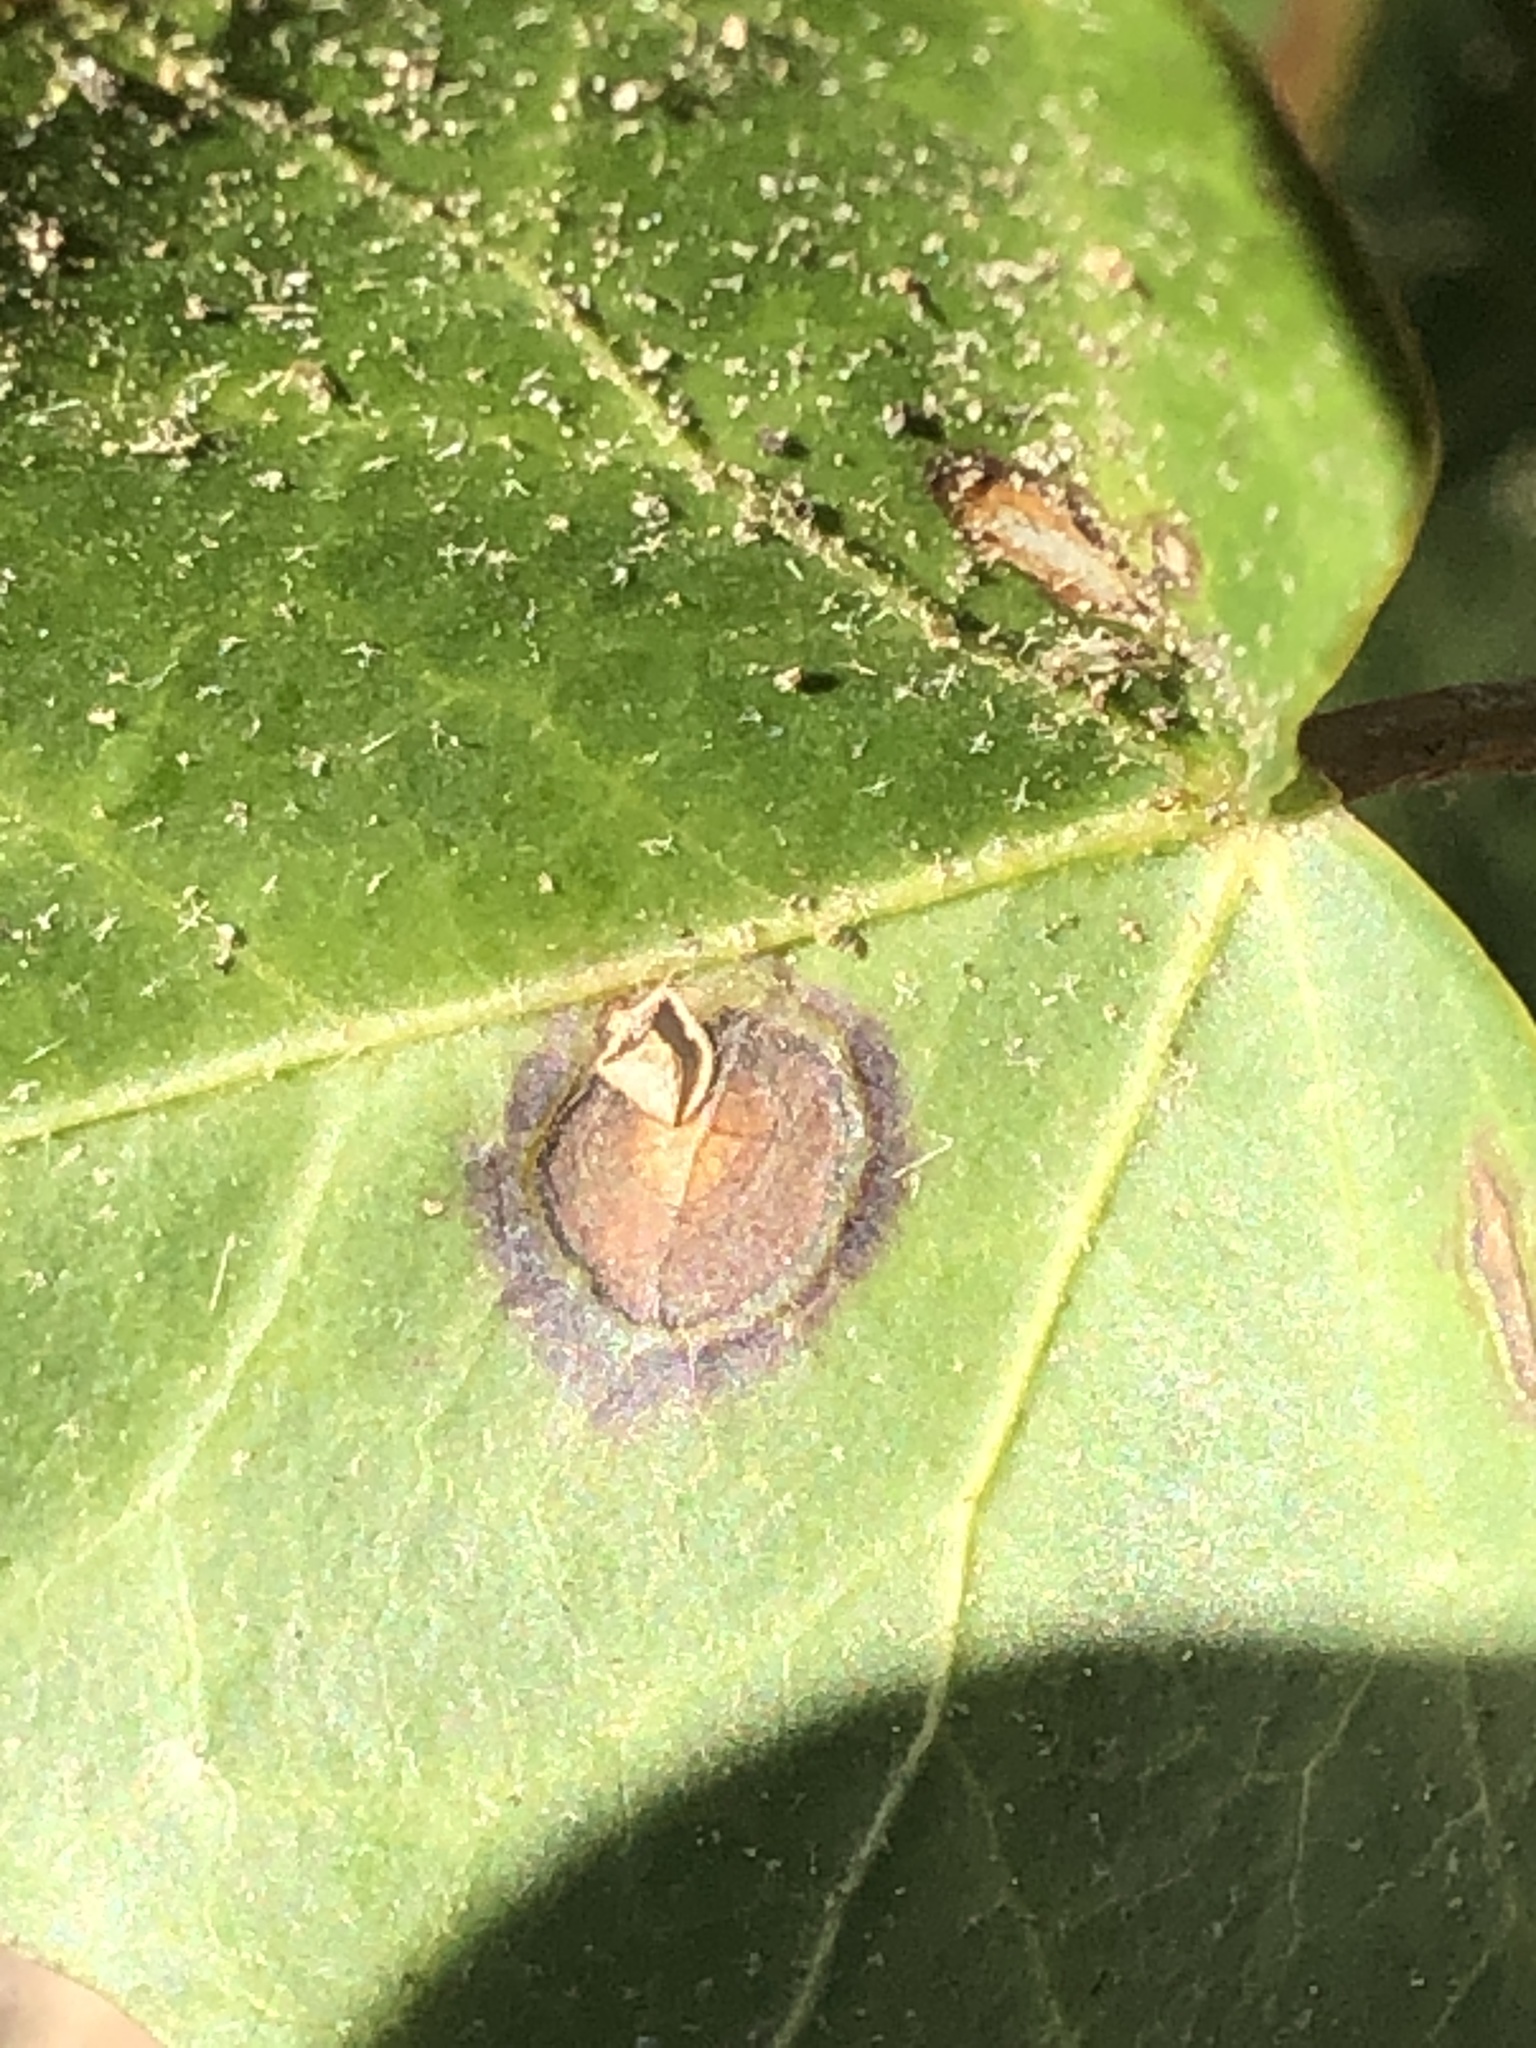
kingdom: Fungi
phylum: Ascomycota
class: Dothideomycetes
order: Pleosporales
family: Didymellaceae
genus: Boeremia
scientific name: Boeremia hedericola
